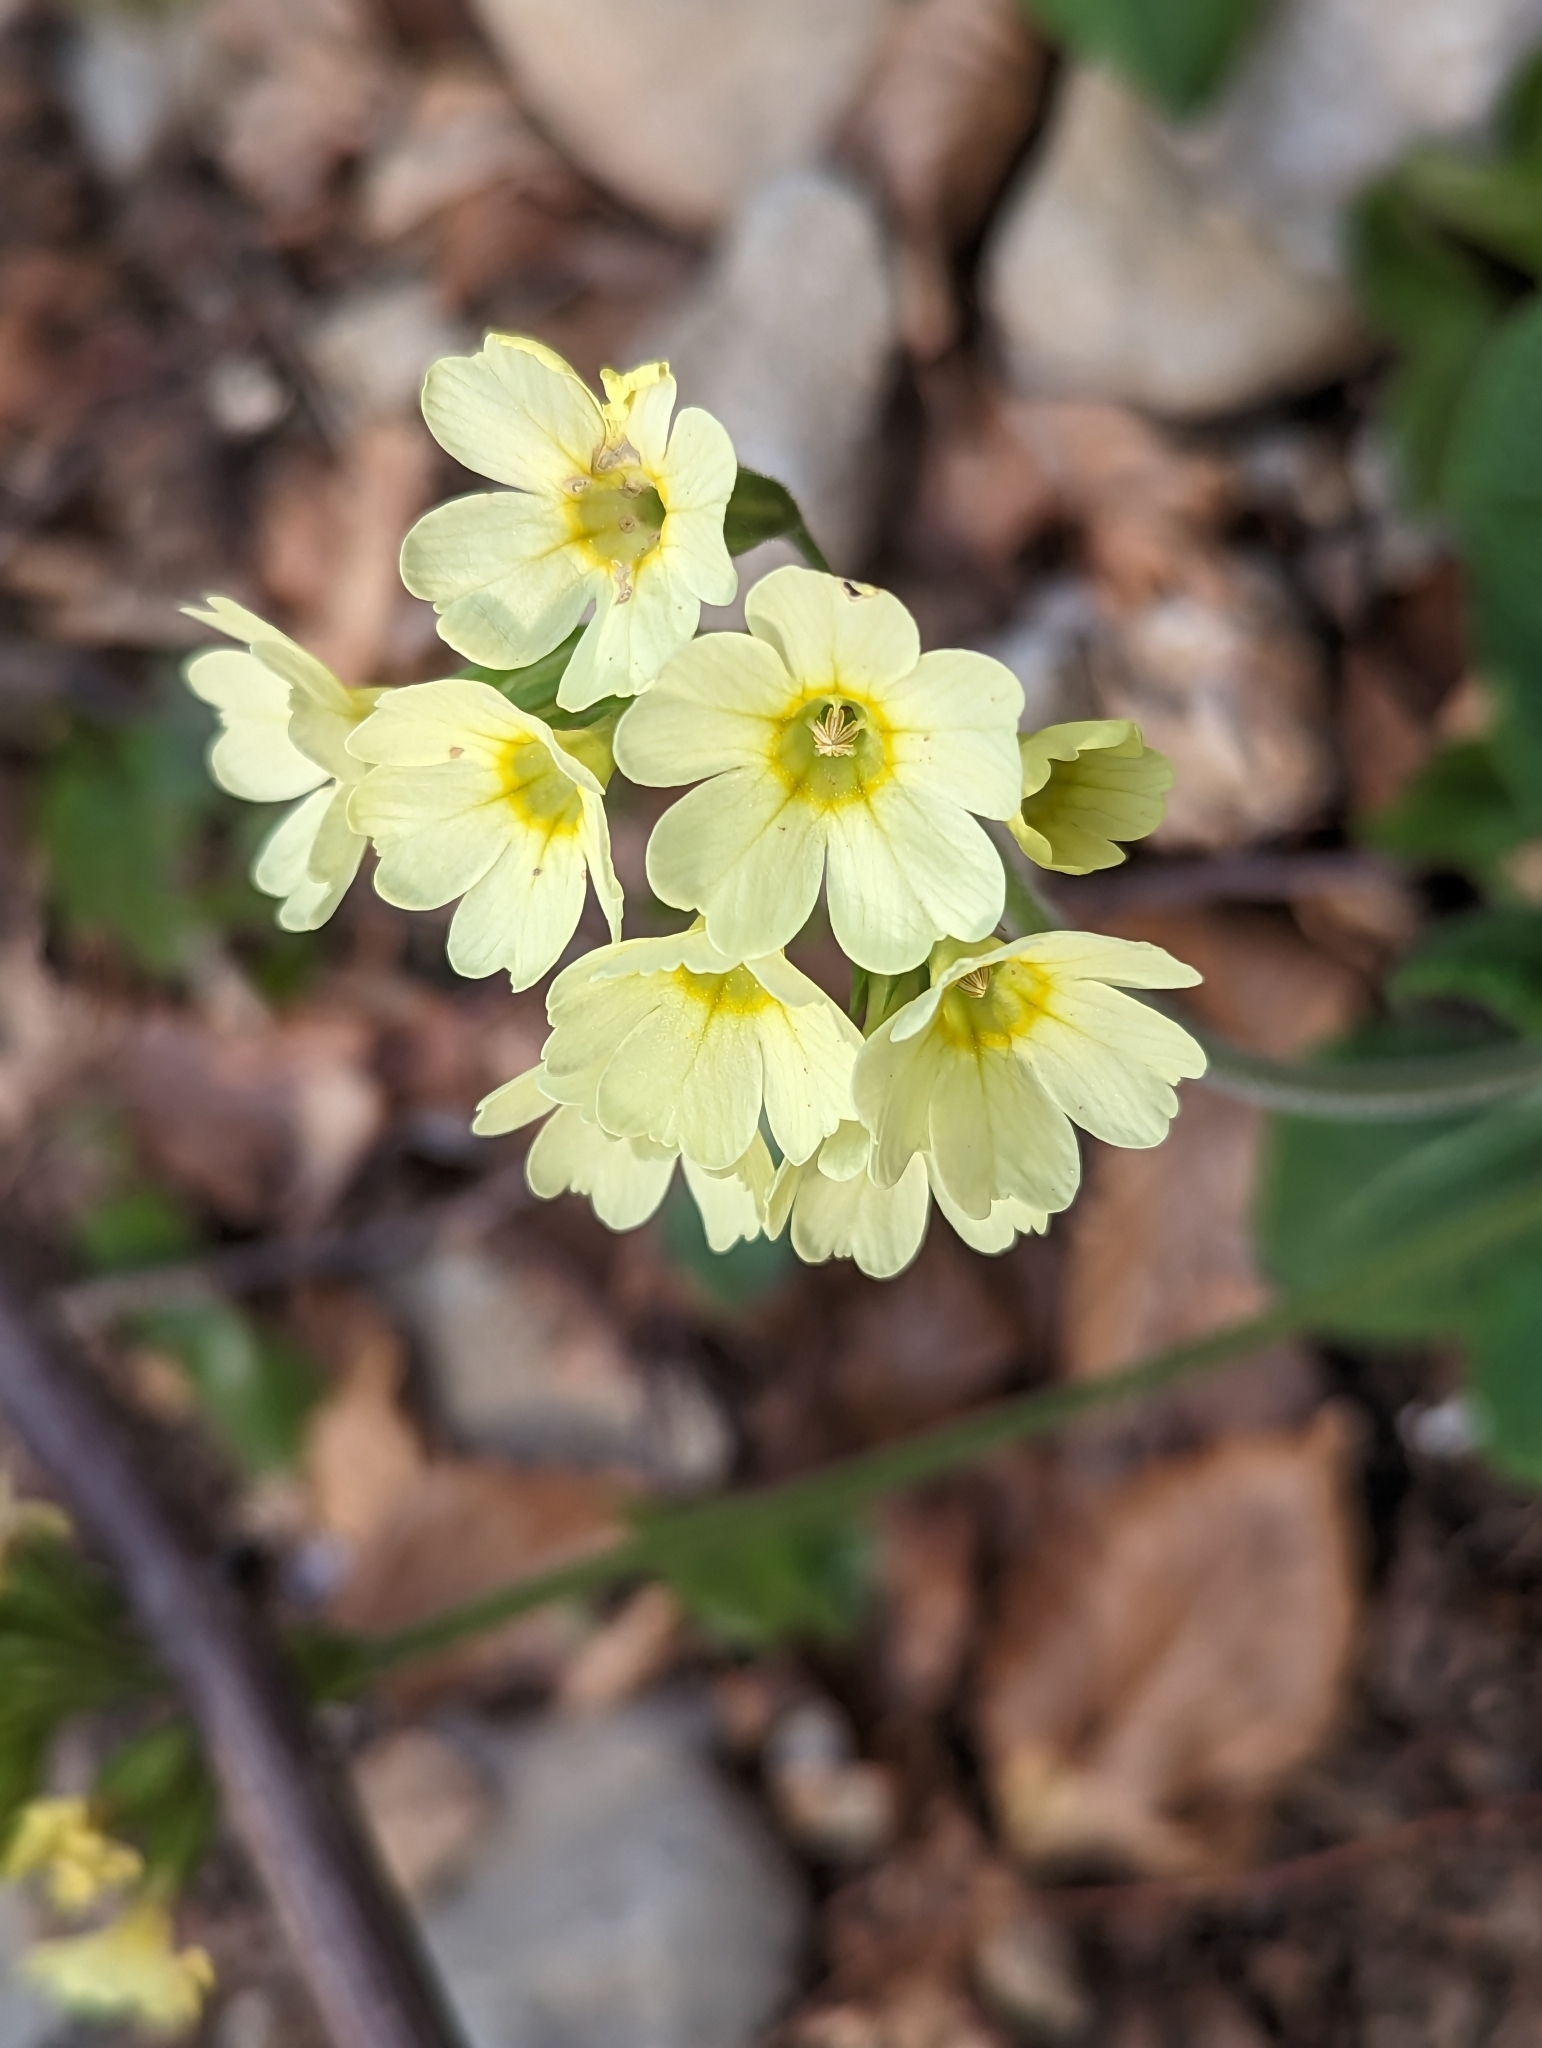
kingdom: Plantae
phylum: Tracheophyta
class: Magnoliopsida
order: Ericales
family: Primulaceae
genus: Primula
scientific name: Primula elatior
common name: Oxlip
